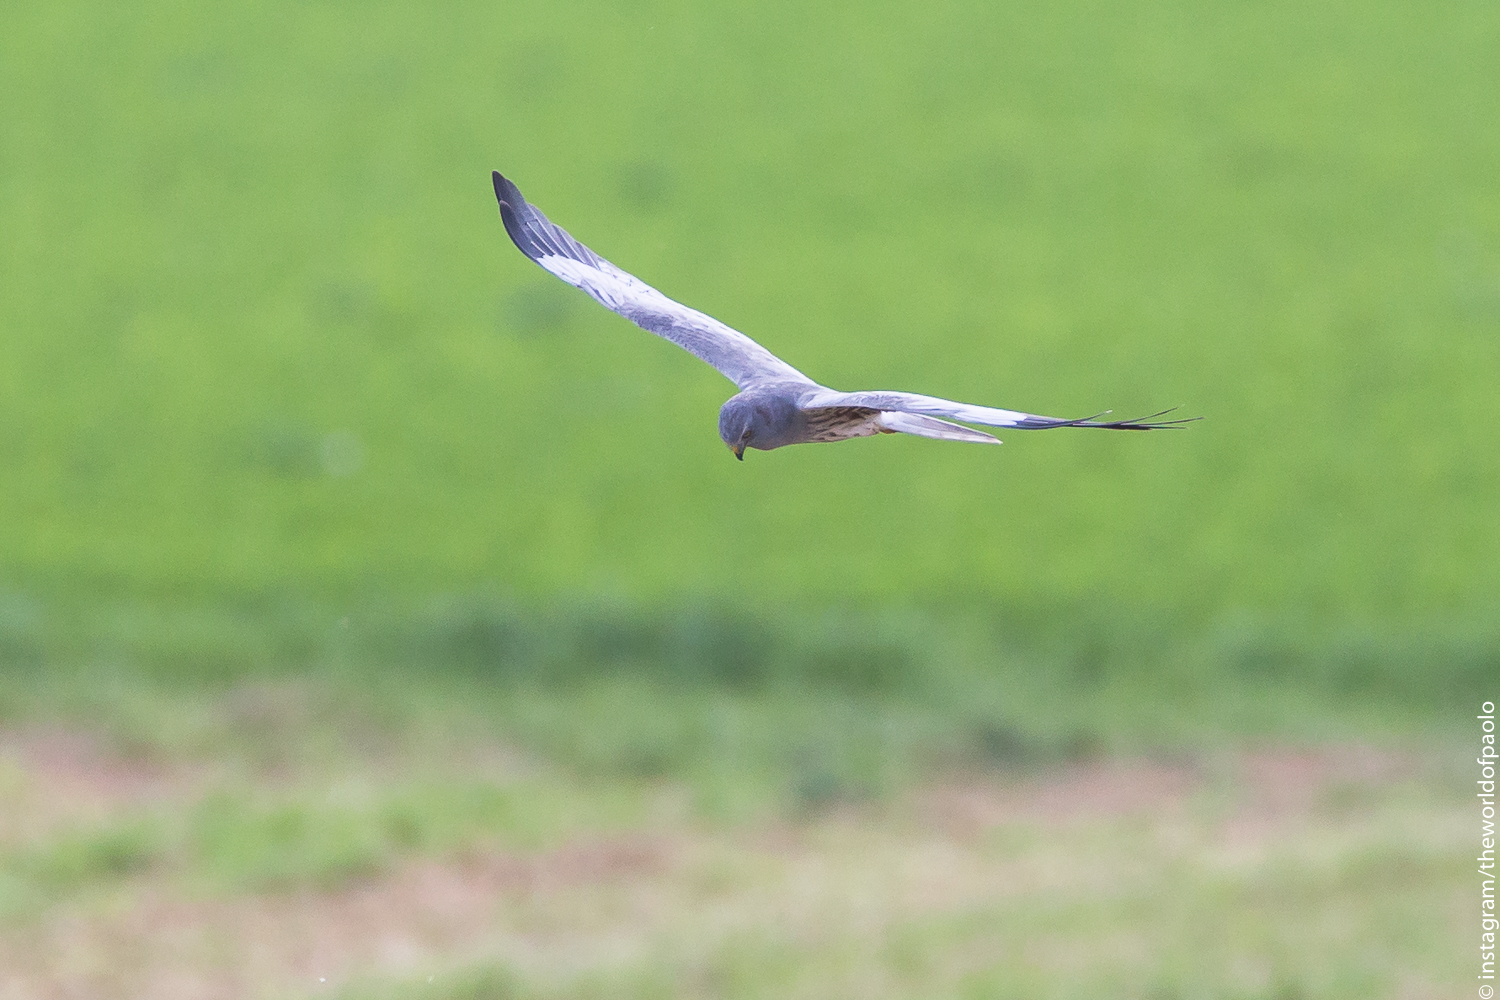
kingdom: Animalia
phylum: Chordata
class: Aves
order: Accipitriformes
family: Accipitridae
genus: Circus
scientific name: Circus pygargus
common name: Montagu's harrier
